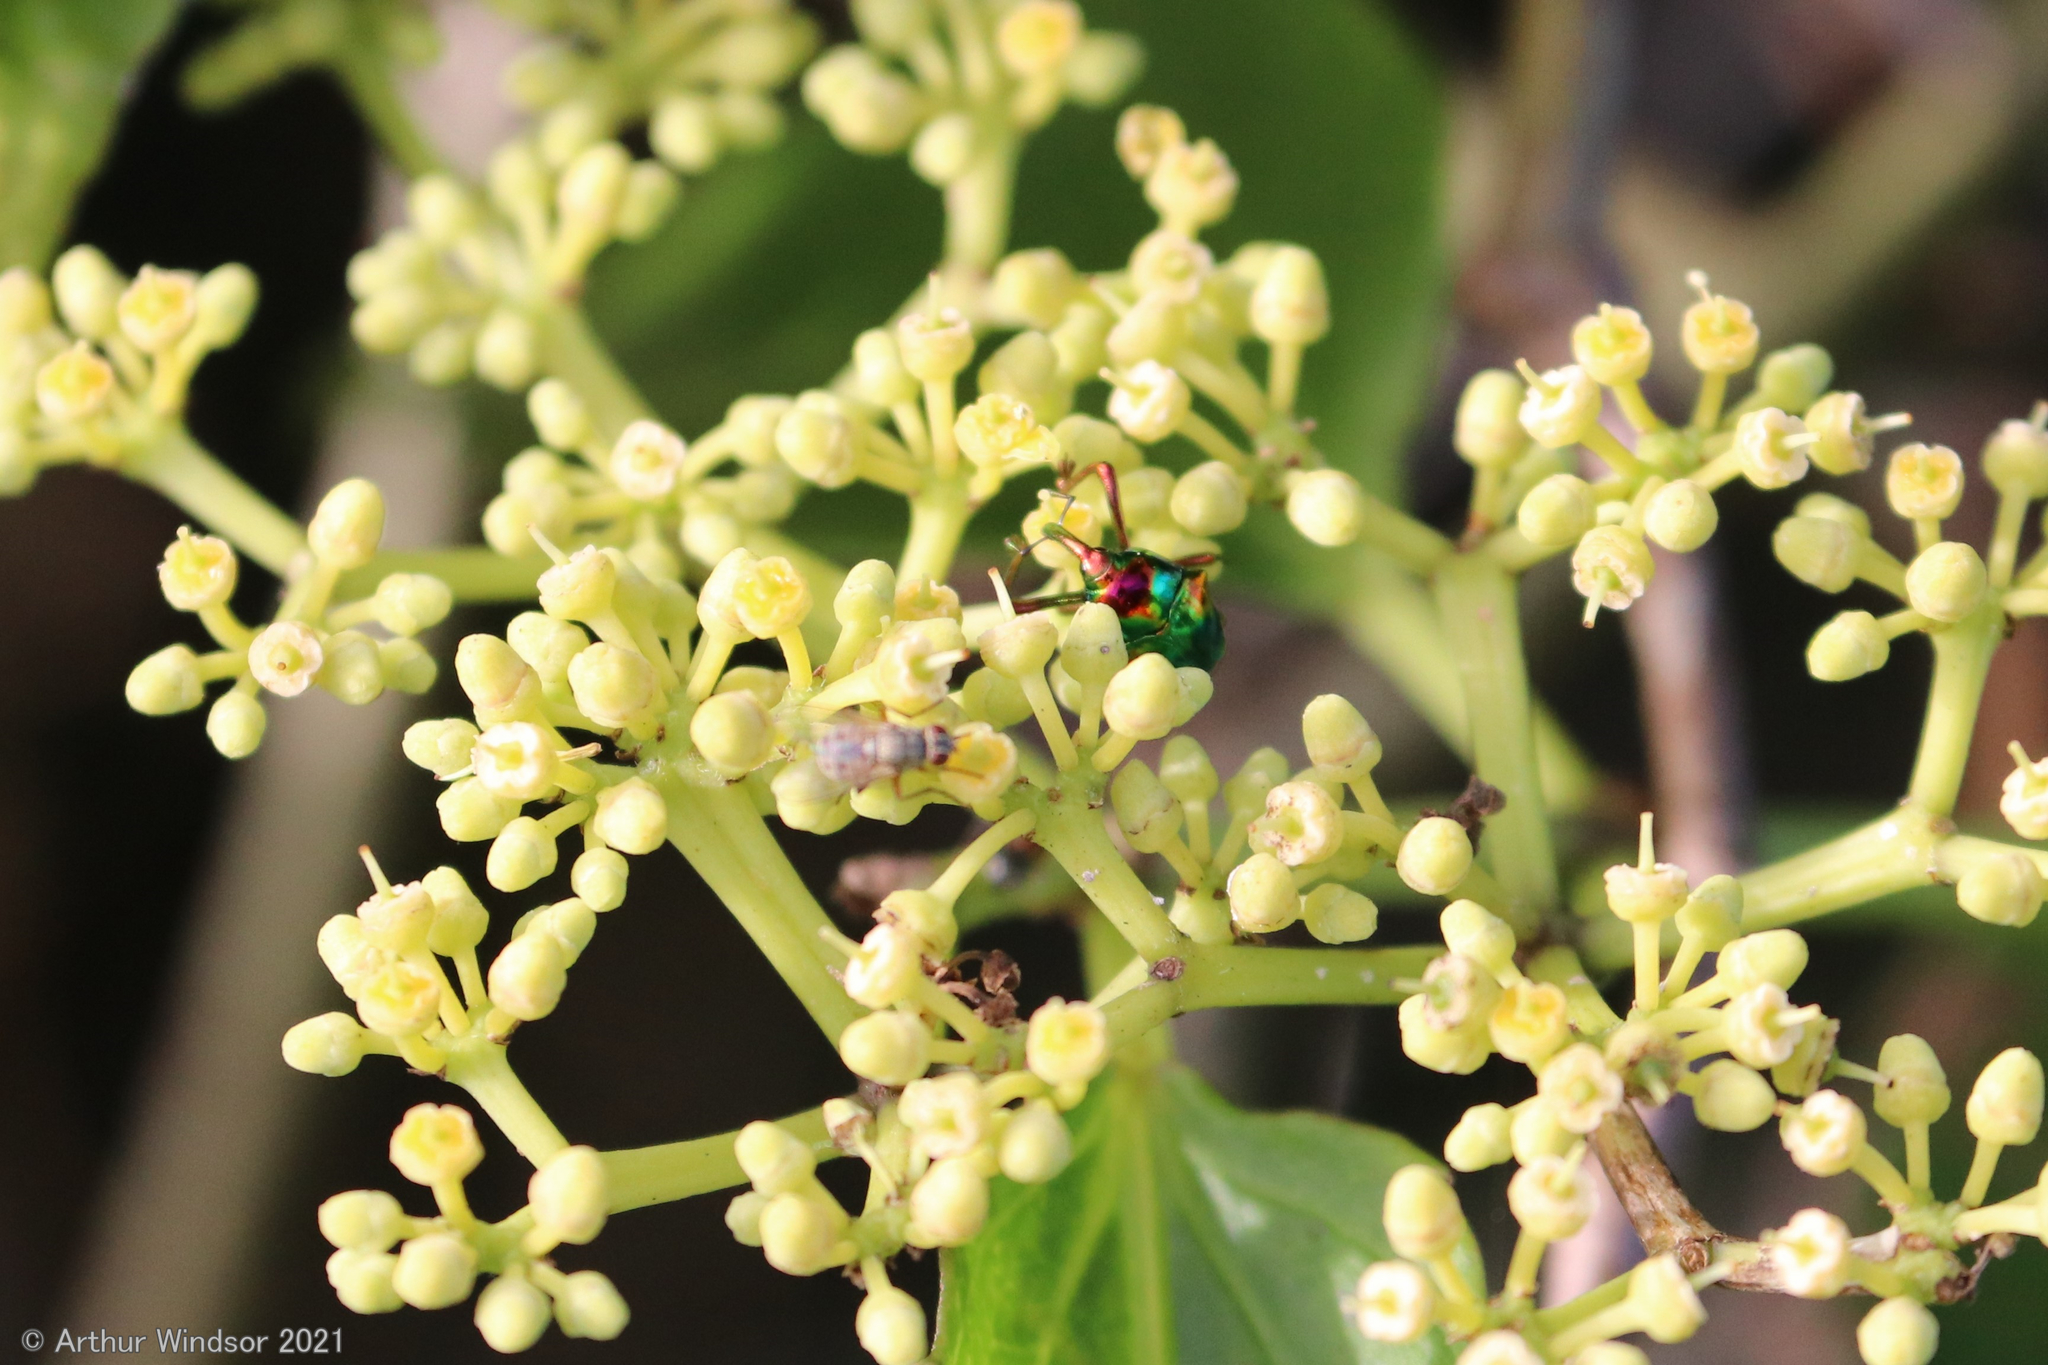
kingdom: Animalia
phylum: Arthropoda
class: Insecta
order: Coleoptera
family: Eurhynchidae
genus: Eurhinus
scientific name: Eurhinus magnificus
